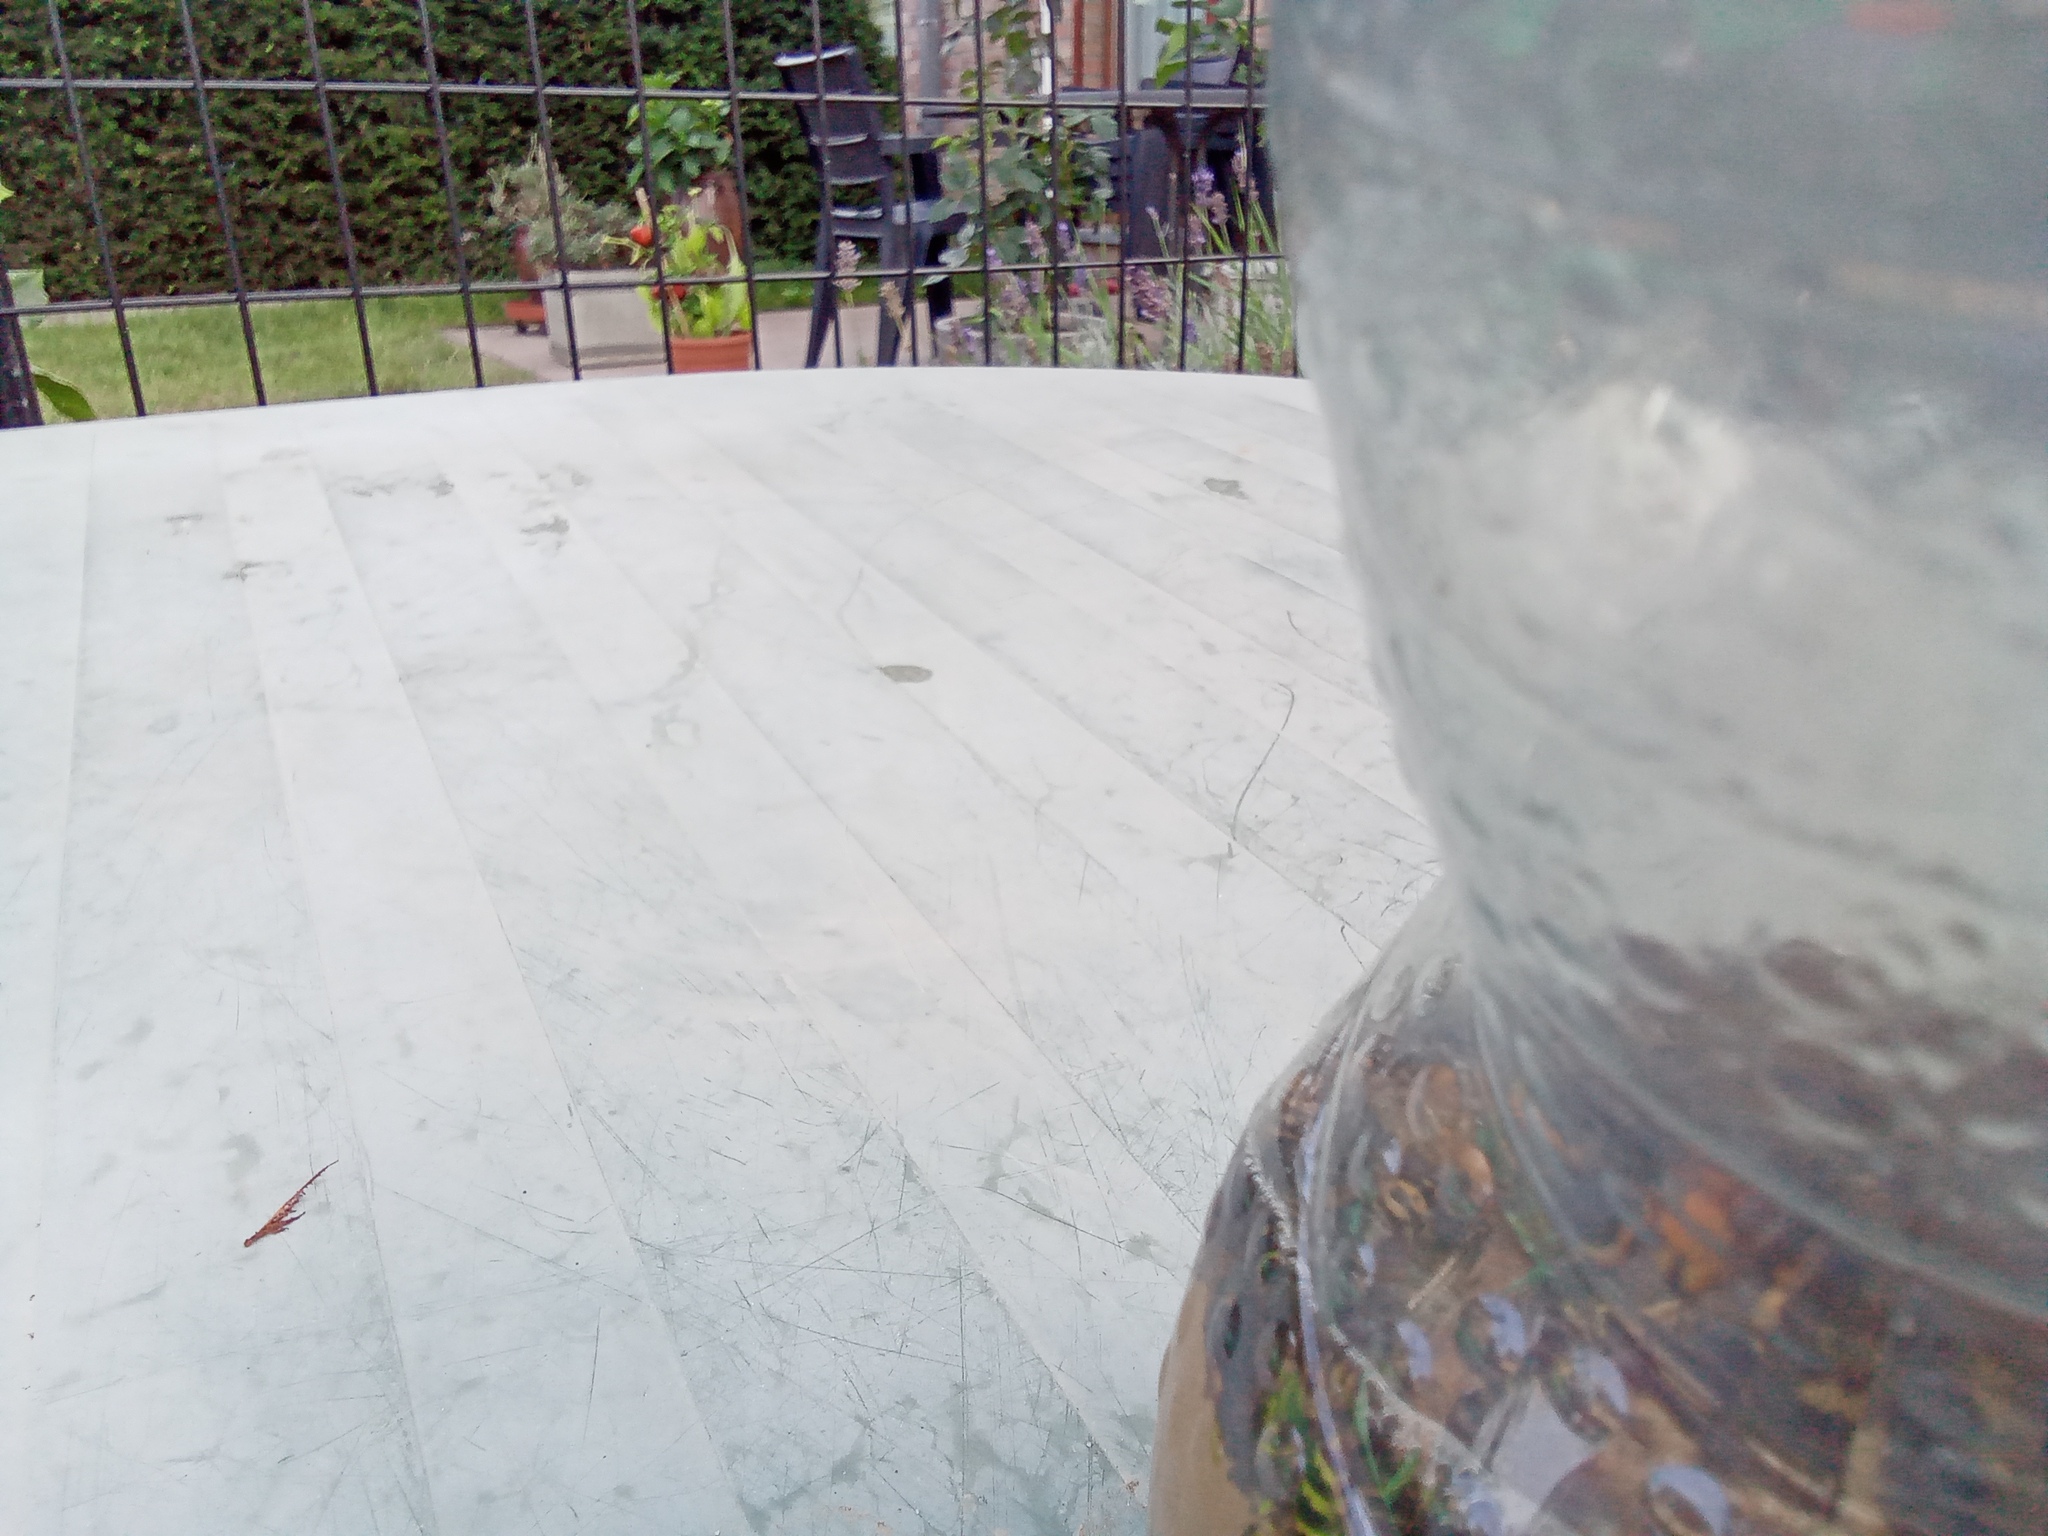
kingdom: Animalia
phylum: Arthropoda
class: Insecta
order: Hymenoptera
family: Vespidae
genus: Vespa
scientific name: Vespa velutina
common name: Asian hornet
